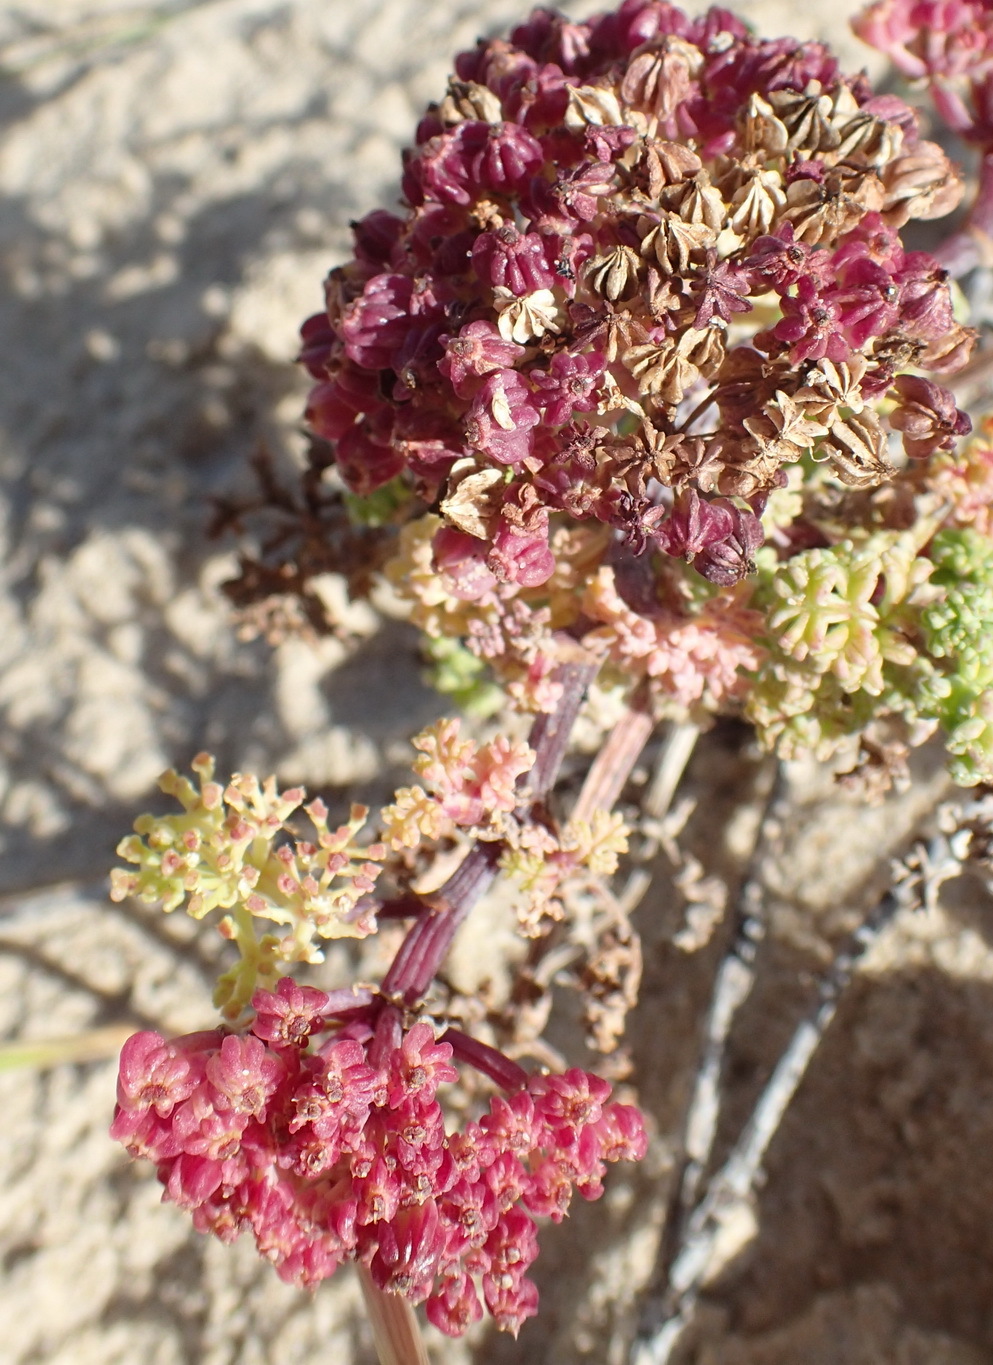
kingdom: Plantae
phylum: Tracheophyta
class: Magnoliopsida
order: Apiales
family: Apiaceae
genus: Dasispermum
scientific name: Dasispermum suffruticosum
